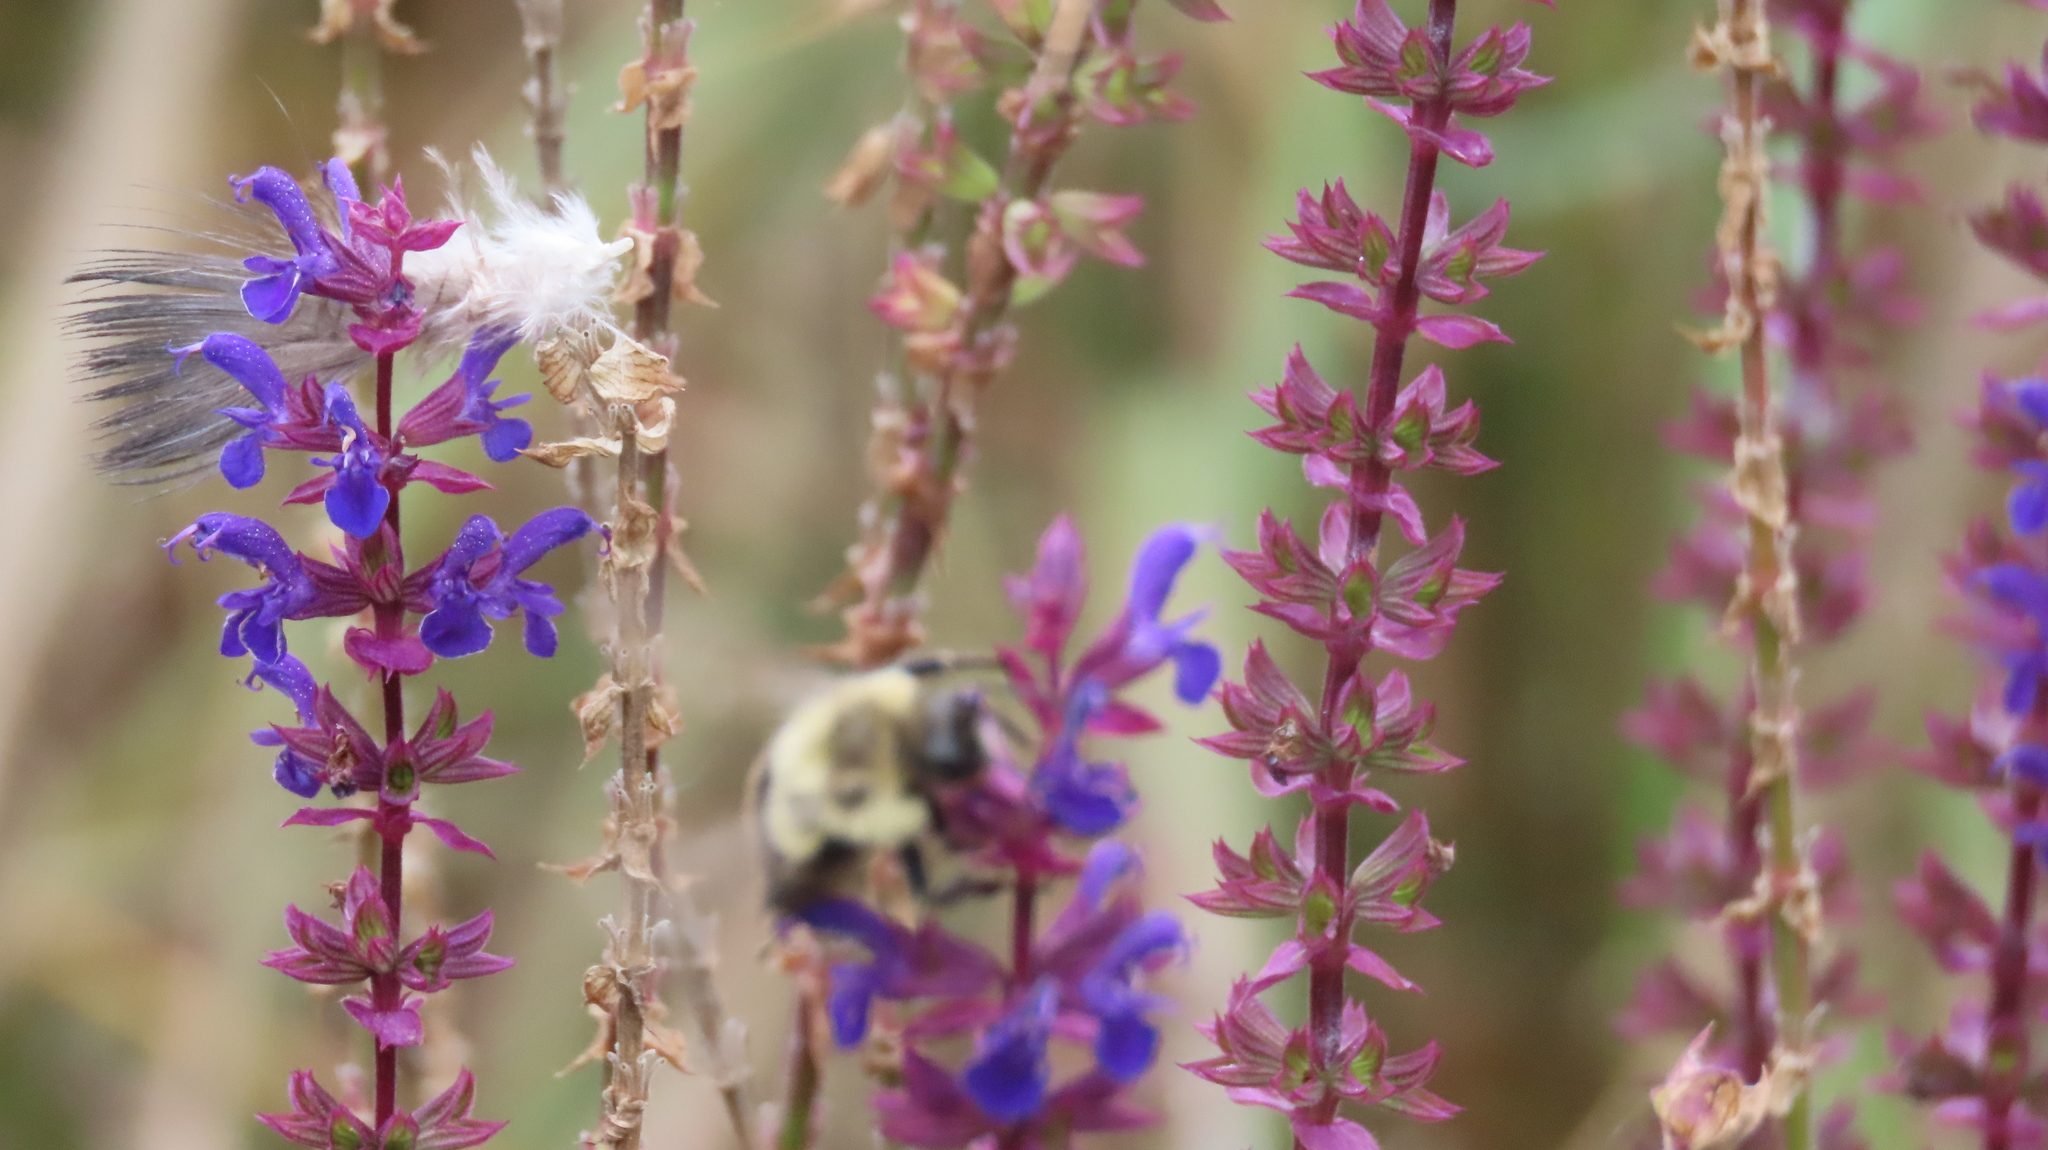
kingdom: Animalia
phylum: Arthropoda
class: Insecta
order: Hymenoptera
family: Apidae
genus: Bombus
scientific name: Bombus impatiens
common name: Common eastern bumble bee
